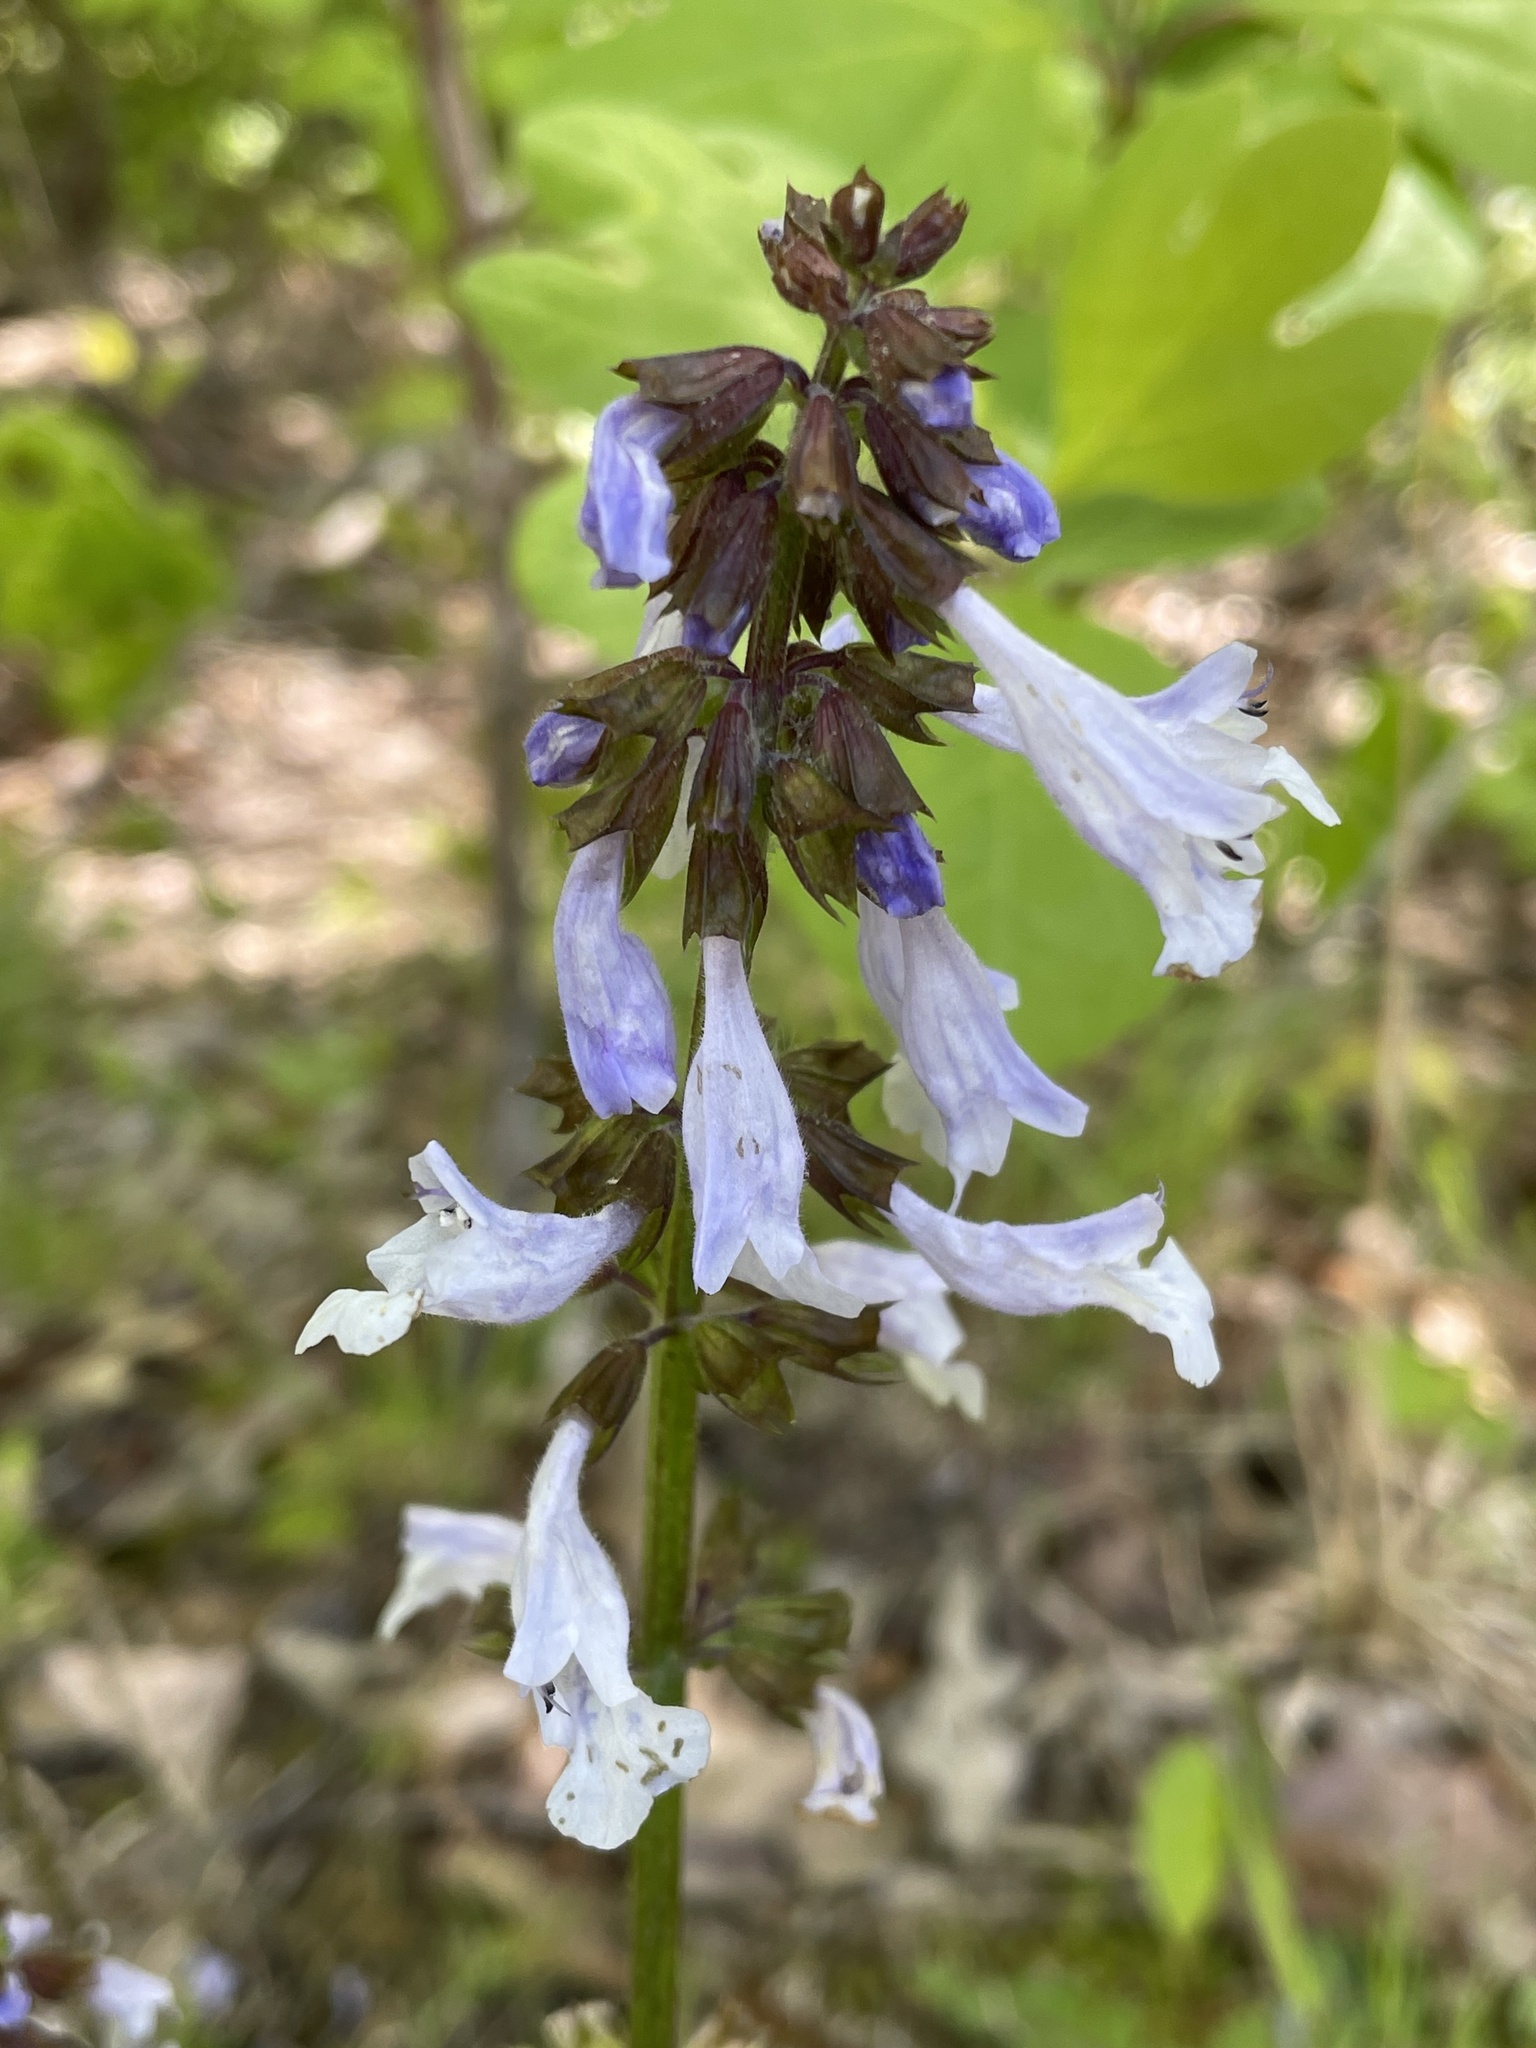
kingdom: Plantae
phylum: Tracheophyta
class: Magnoliopsida
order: Lamiales
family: Lamiaceae
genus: Salvia
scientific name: Salvia lyrata
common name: Cancerweed
